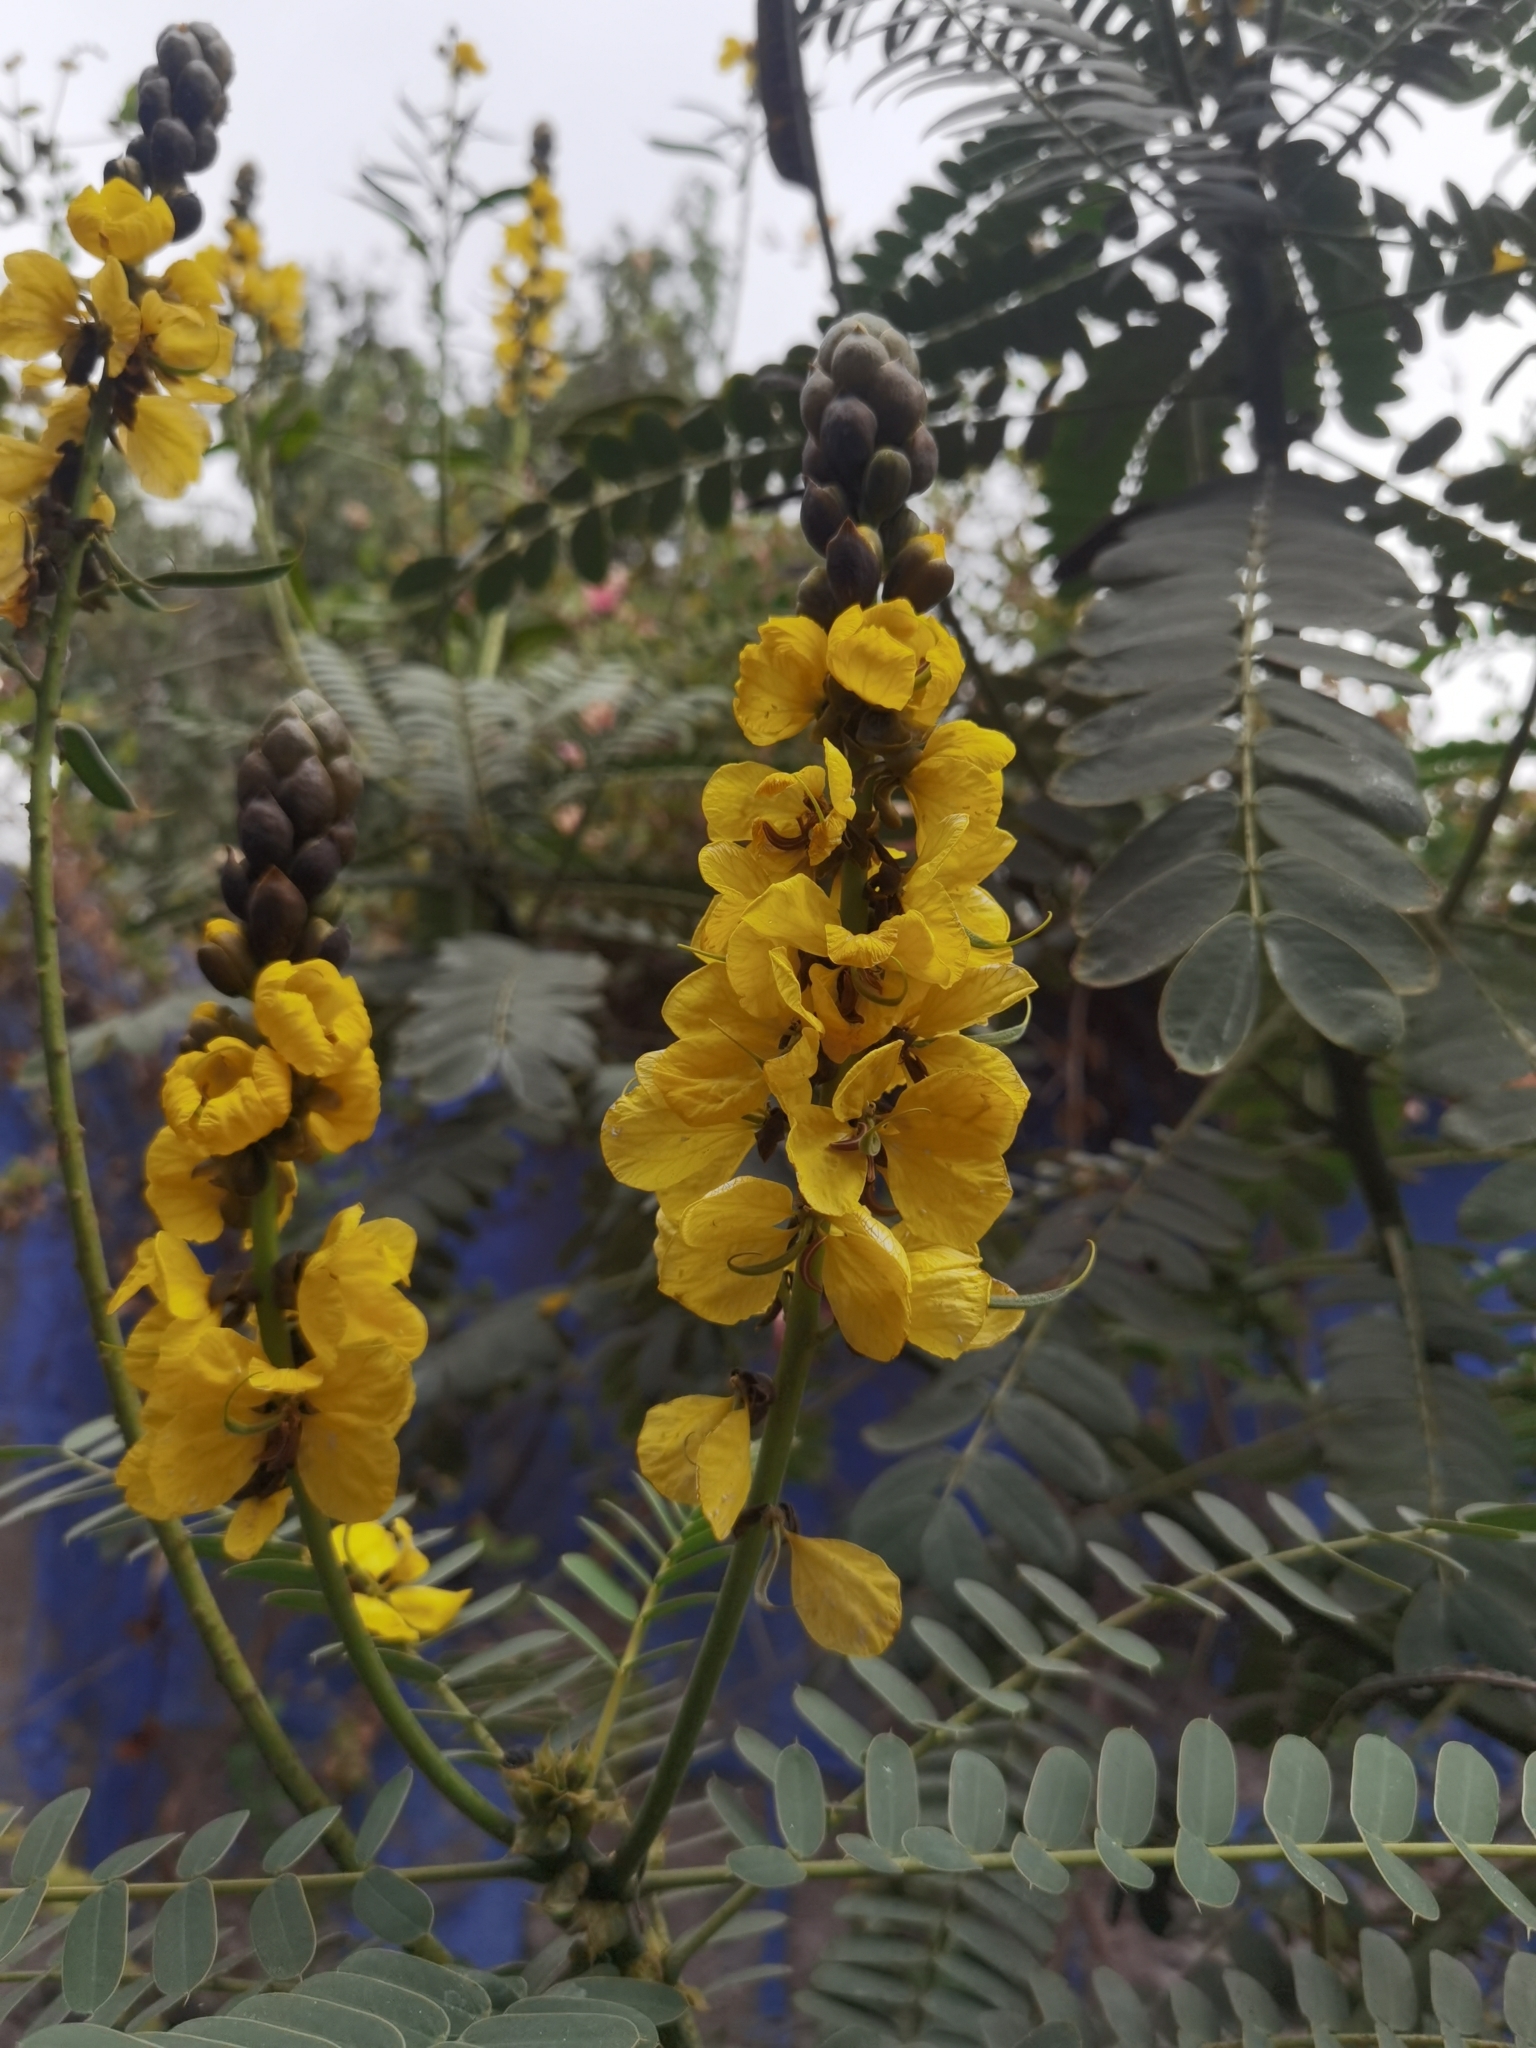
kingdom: Plantae
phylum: Tracheophyta
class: Magnoliopsida
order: Fabales
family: Fabaceae
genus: Senna
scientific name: Senna didymobotrya
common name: African senna
